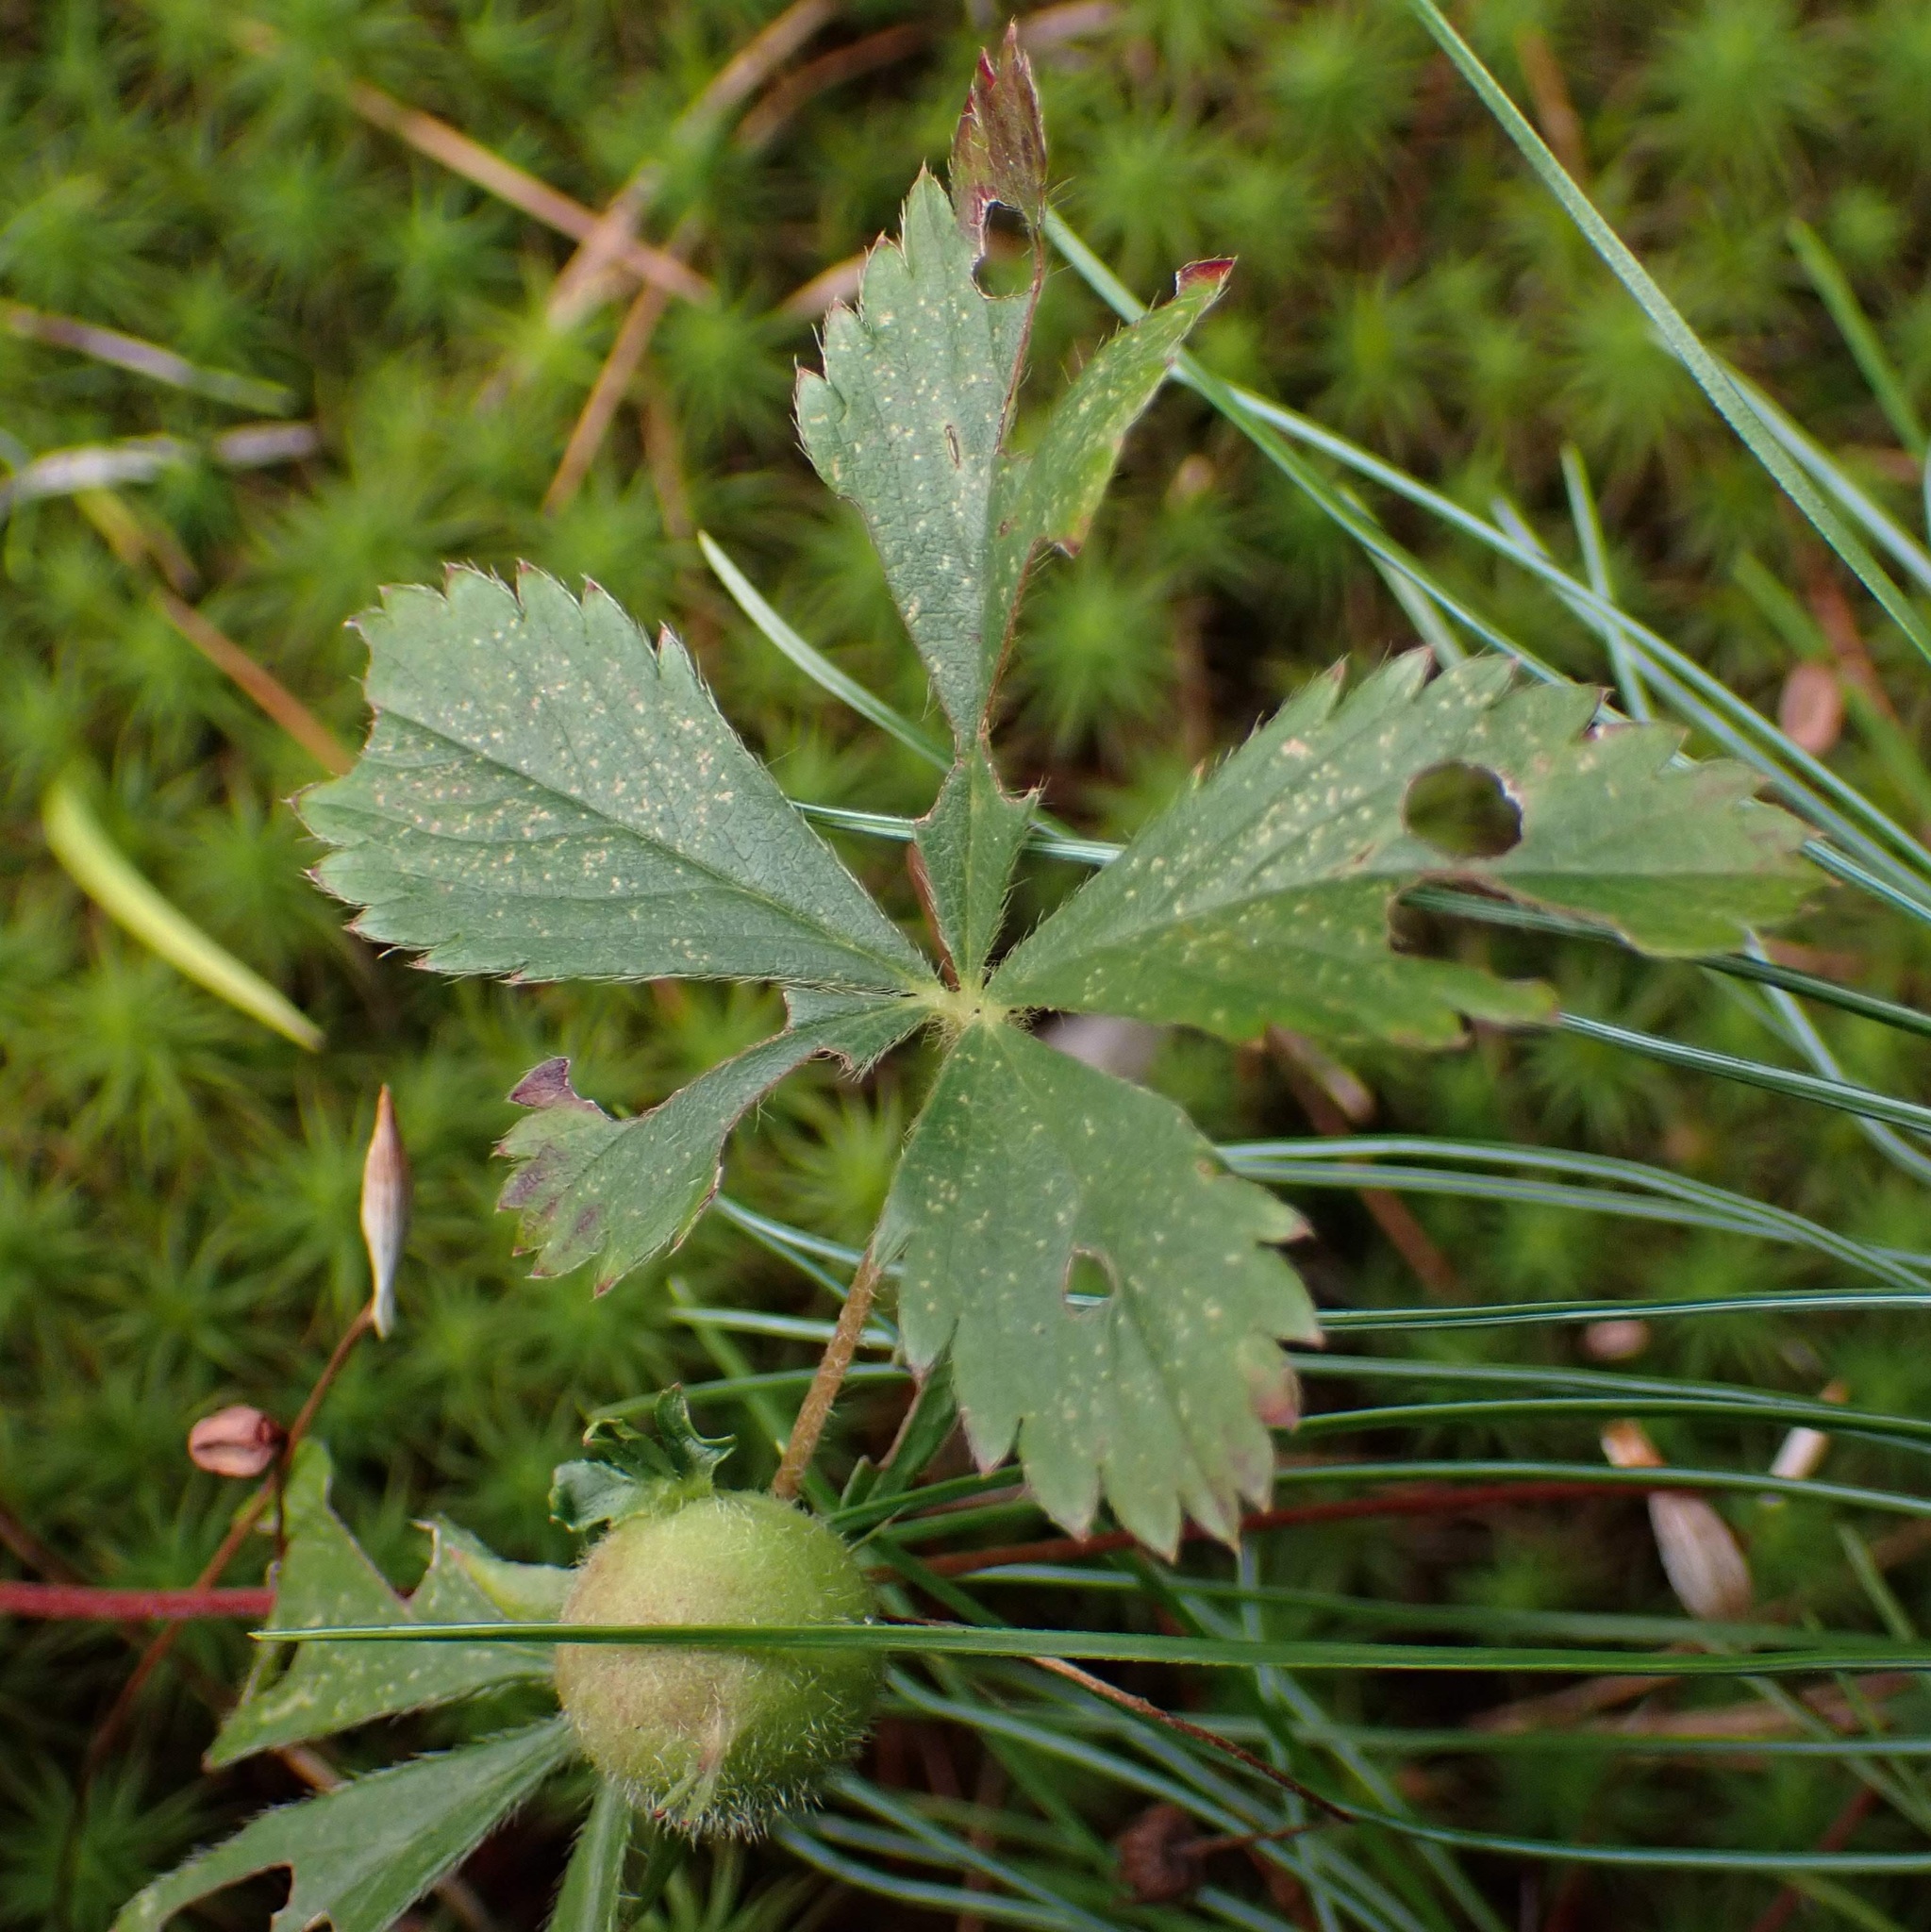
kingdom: Plantae
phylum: Tracheophyta
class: Magnoliopsida
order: Rosales
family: Rosaceae
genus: Potentilla
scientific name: Potentilla simplex
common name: Old field cinquefoil
